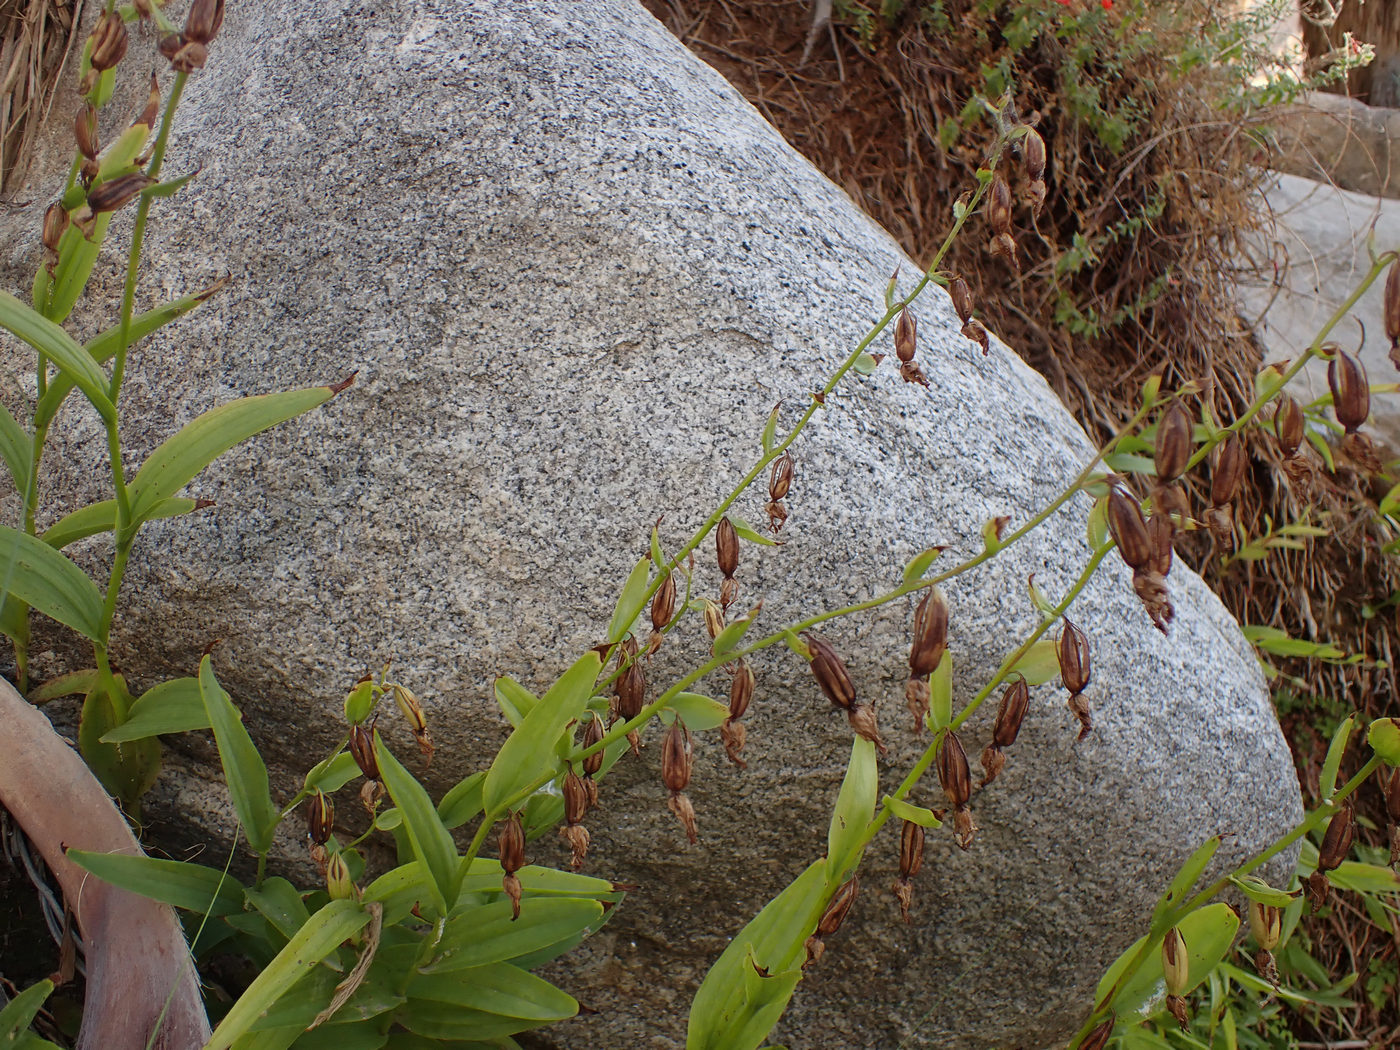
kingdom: Plantae
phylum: Tracheophyta
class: Liliopsida
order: Asparagales
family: Orchidaceae
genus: Epipactis
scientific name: Epipactis gigantea
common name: Chatterbox
